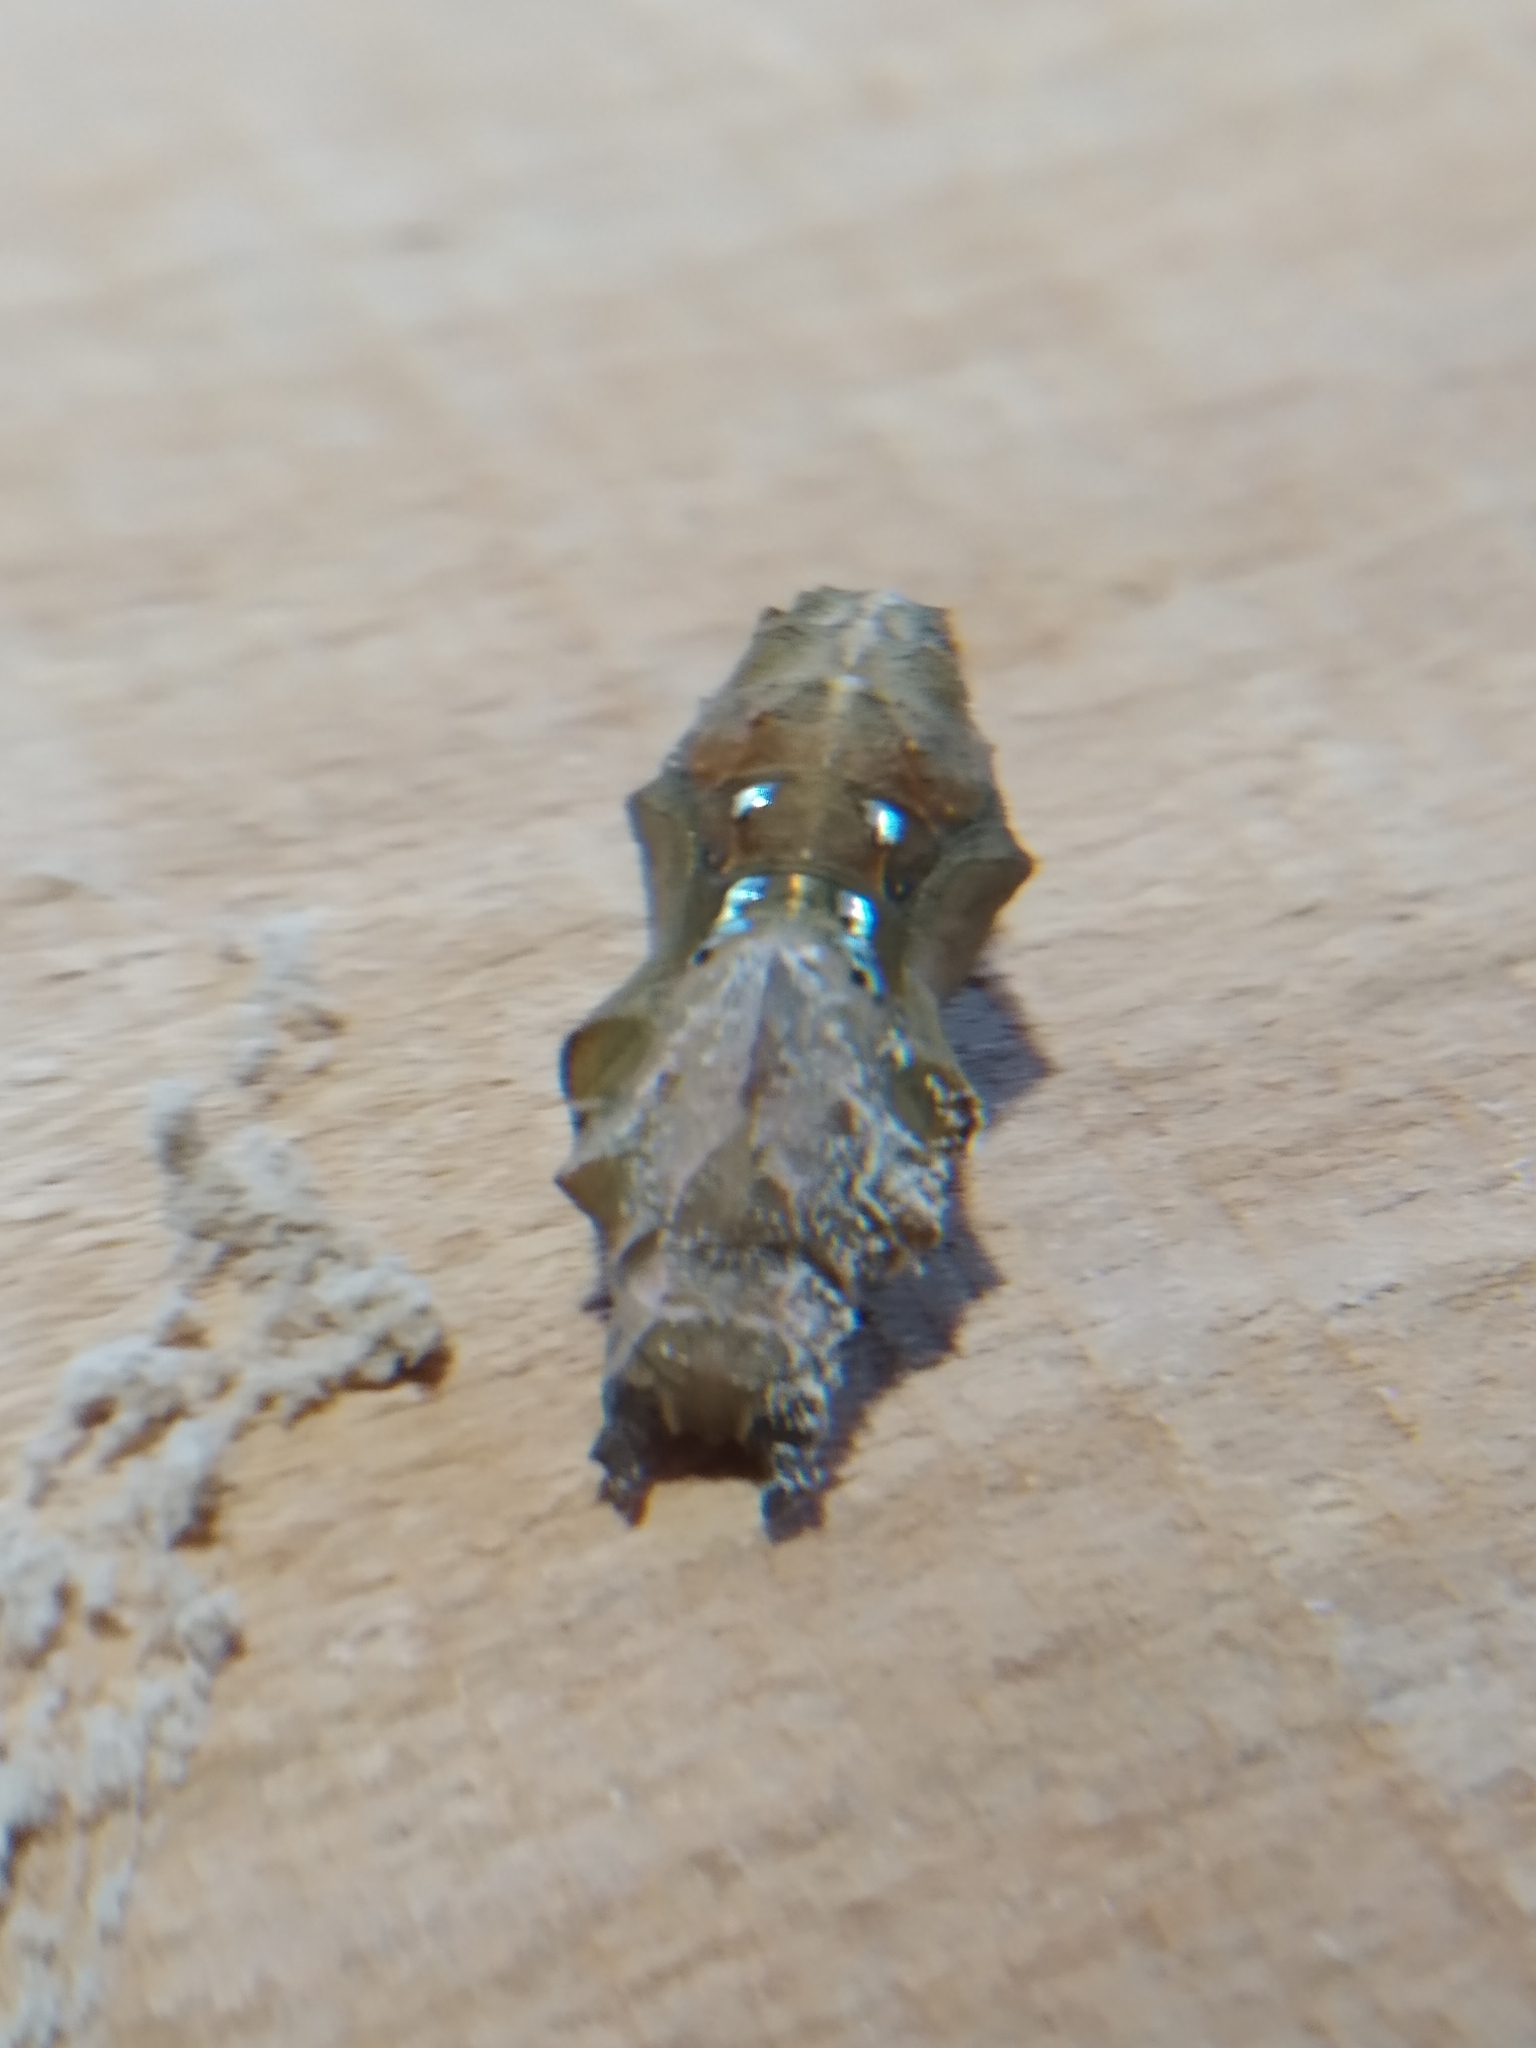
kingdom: Animalia
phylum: Arthropoda
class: Insecta
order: Lepidoptera
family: Nymphalidae
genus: Polygonia
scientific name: Polygonia c-album
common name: Comma
